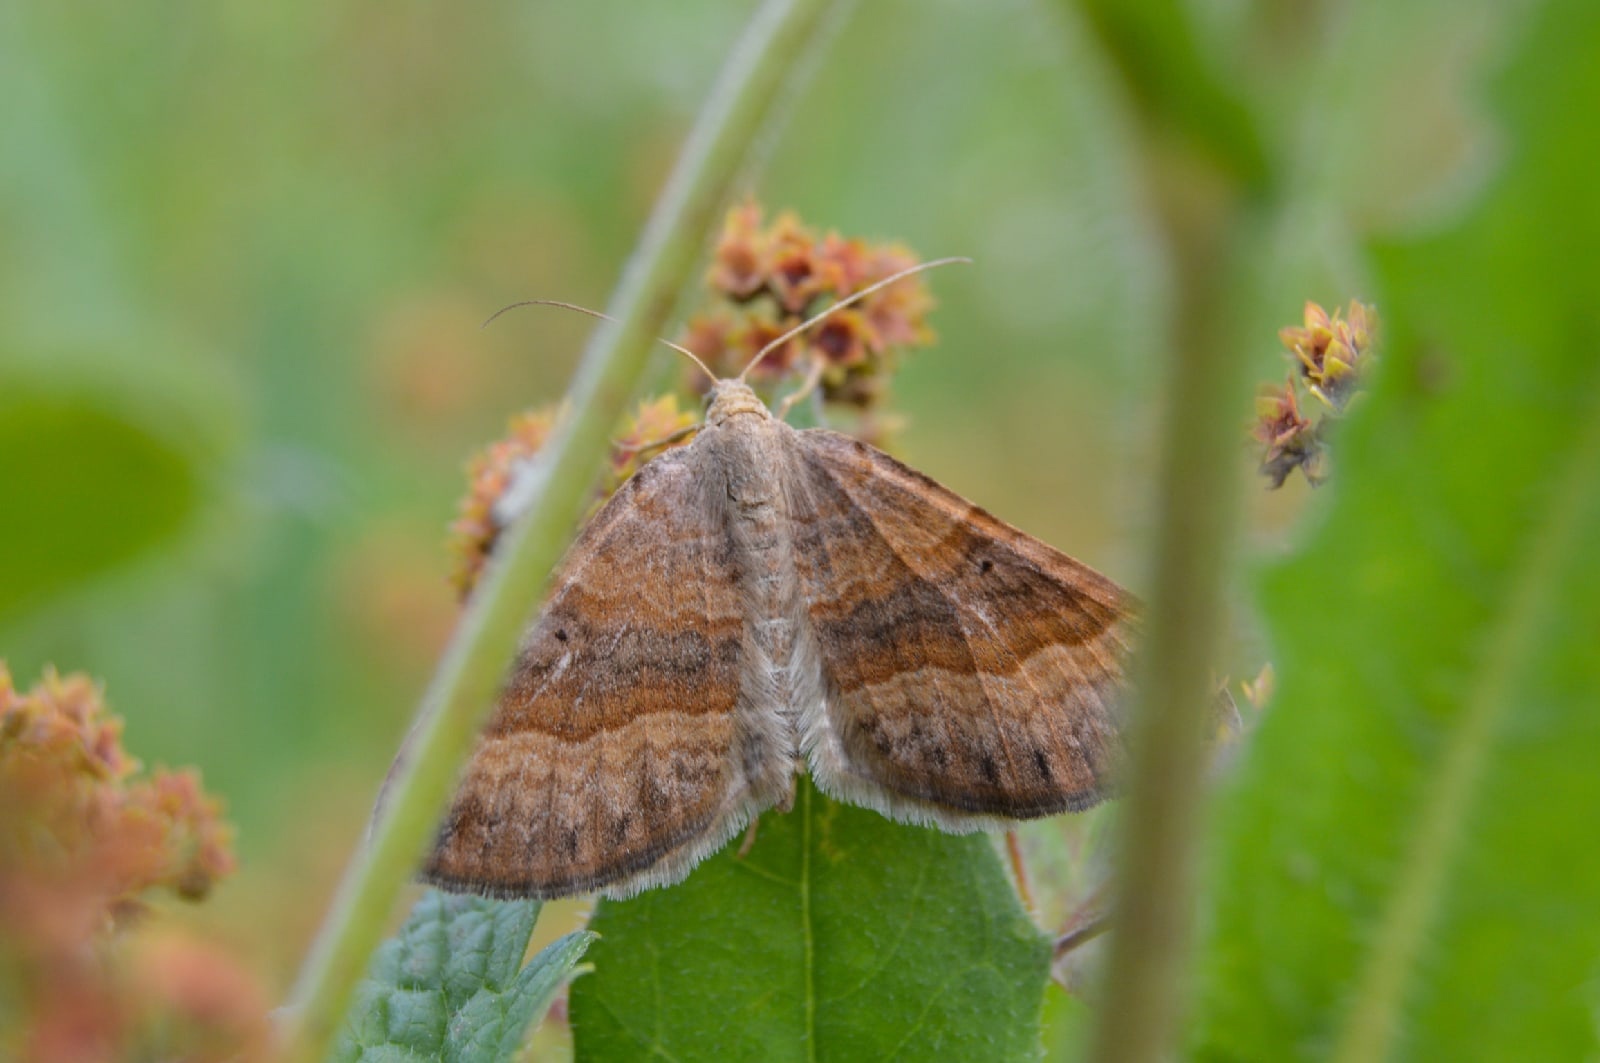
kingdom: Animalia
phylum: Arthropoda
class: Insecta
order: Lepidoptera
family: Geometridae
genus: Scotopteryx
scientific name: Scotopteryx chenopodiata
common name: Shaded broad-bar
